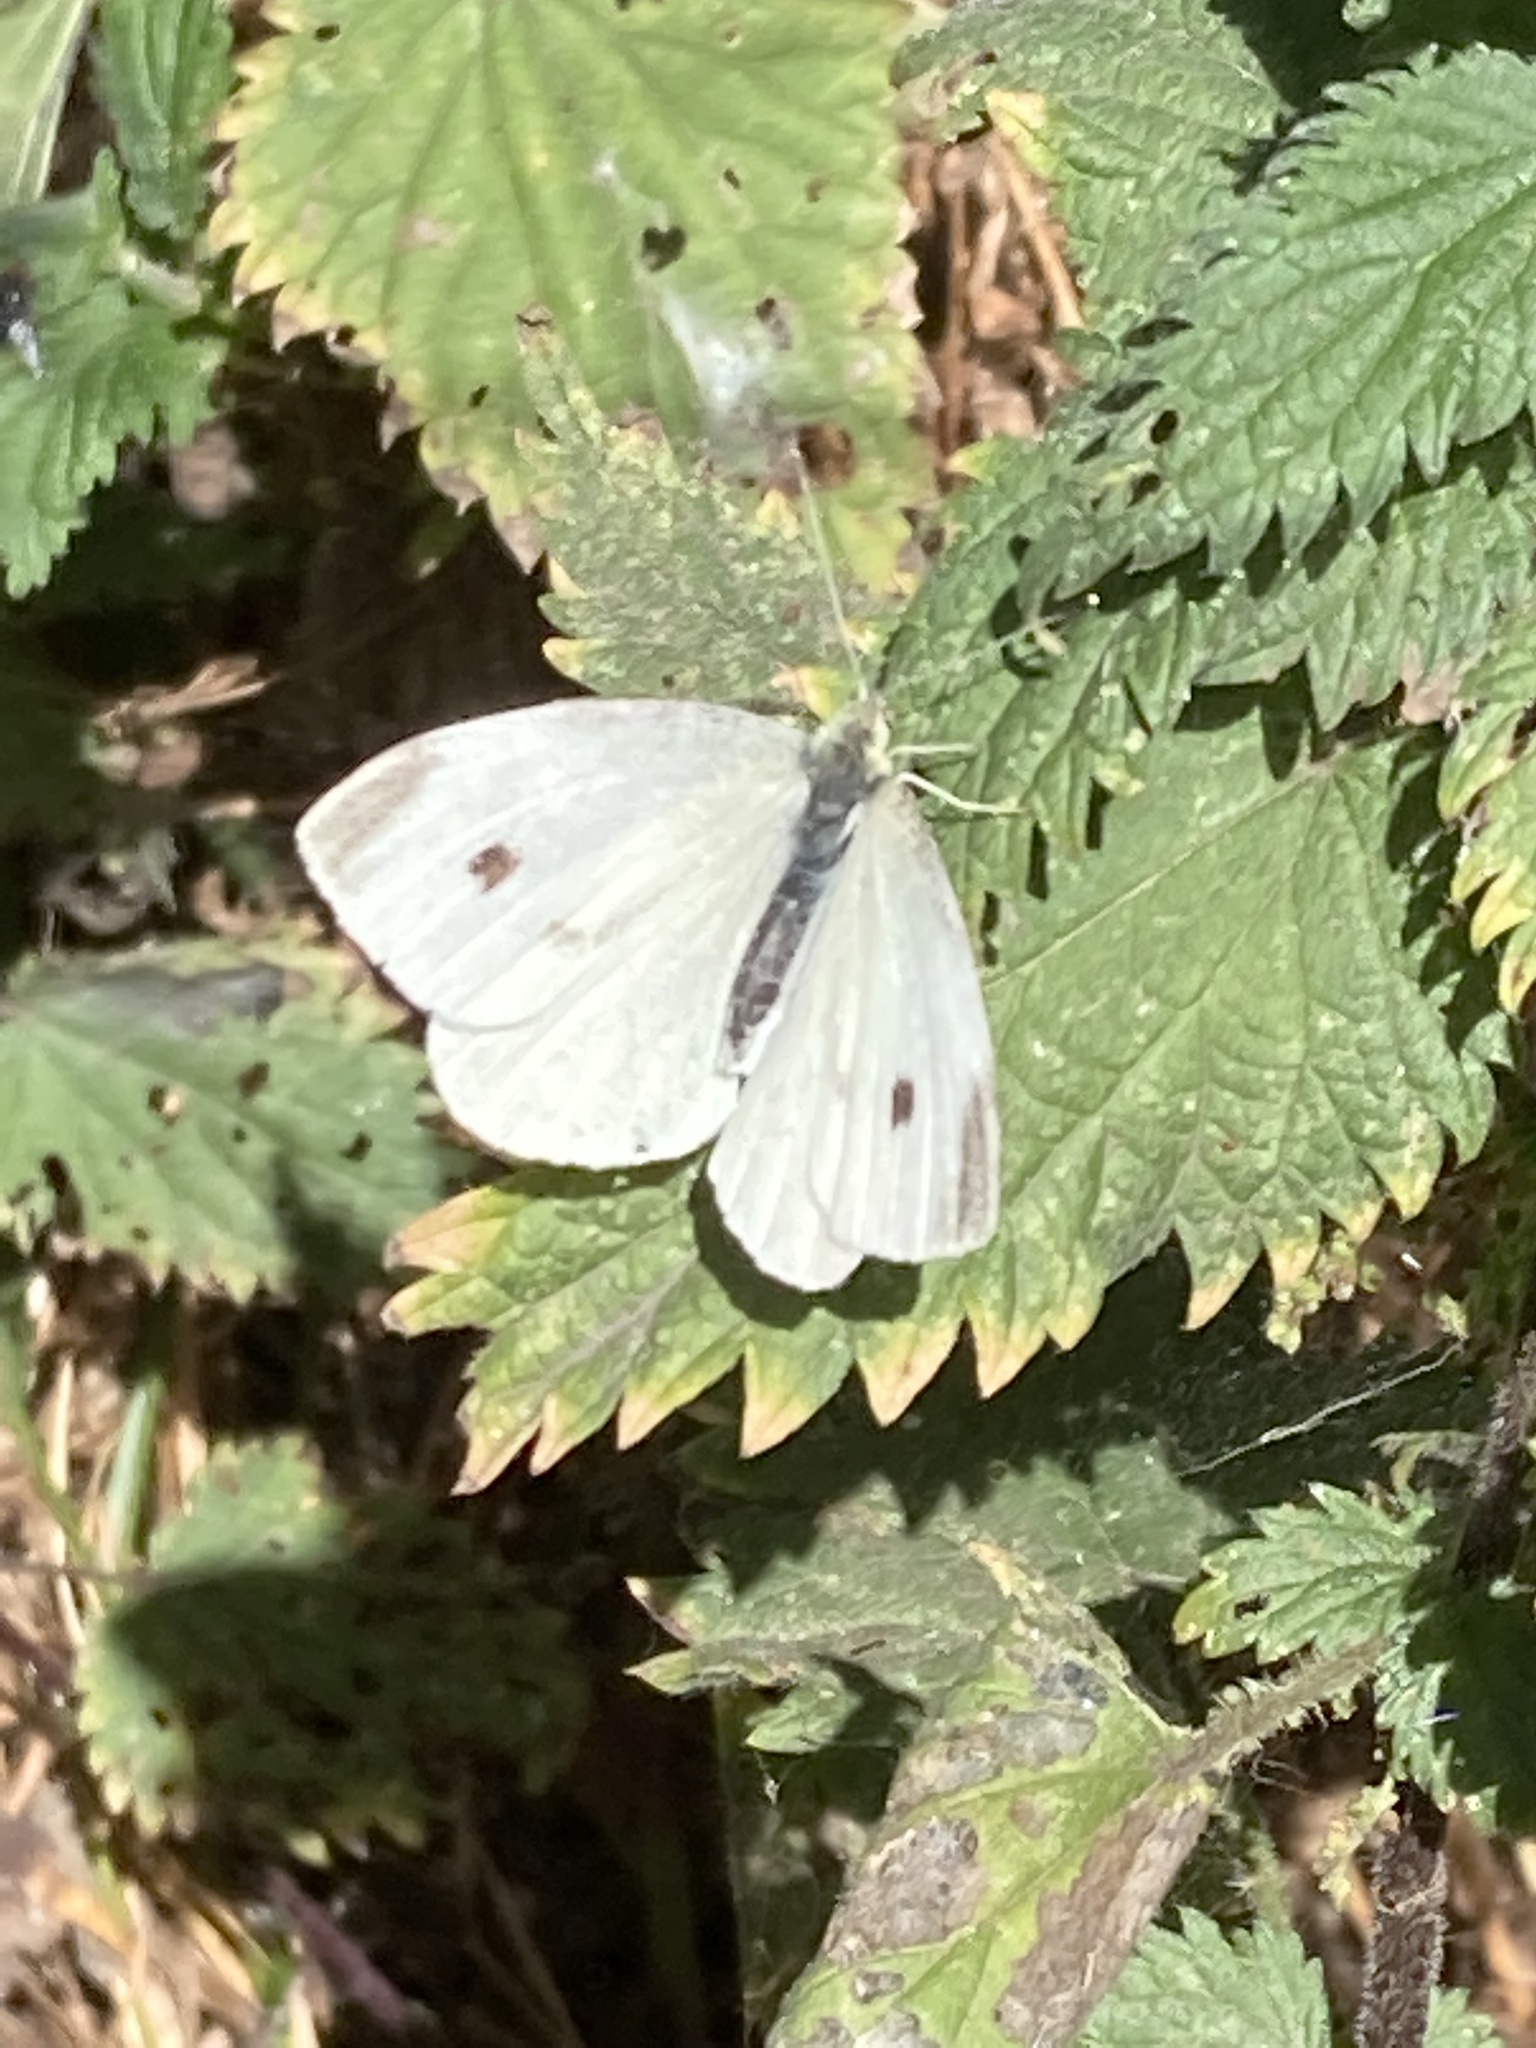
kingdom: Animalia
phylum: Arthropoda
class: Insecta
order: Lepidoptera
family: Pieridae
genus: Pieris
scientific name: Pieris rapae
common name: Small white
